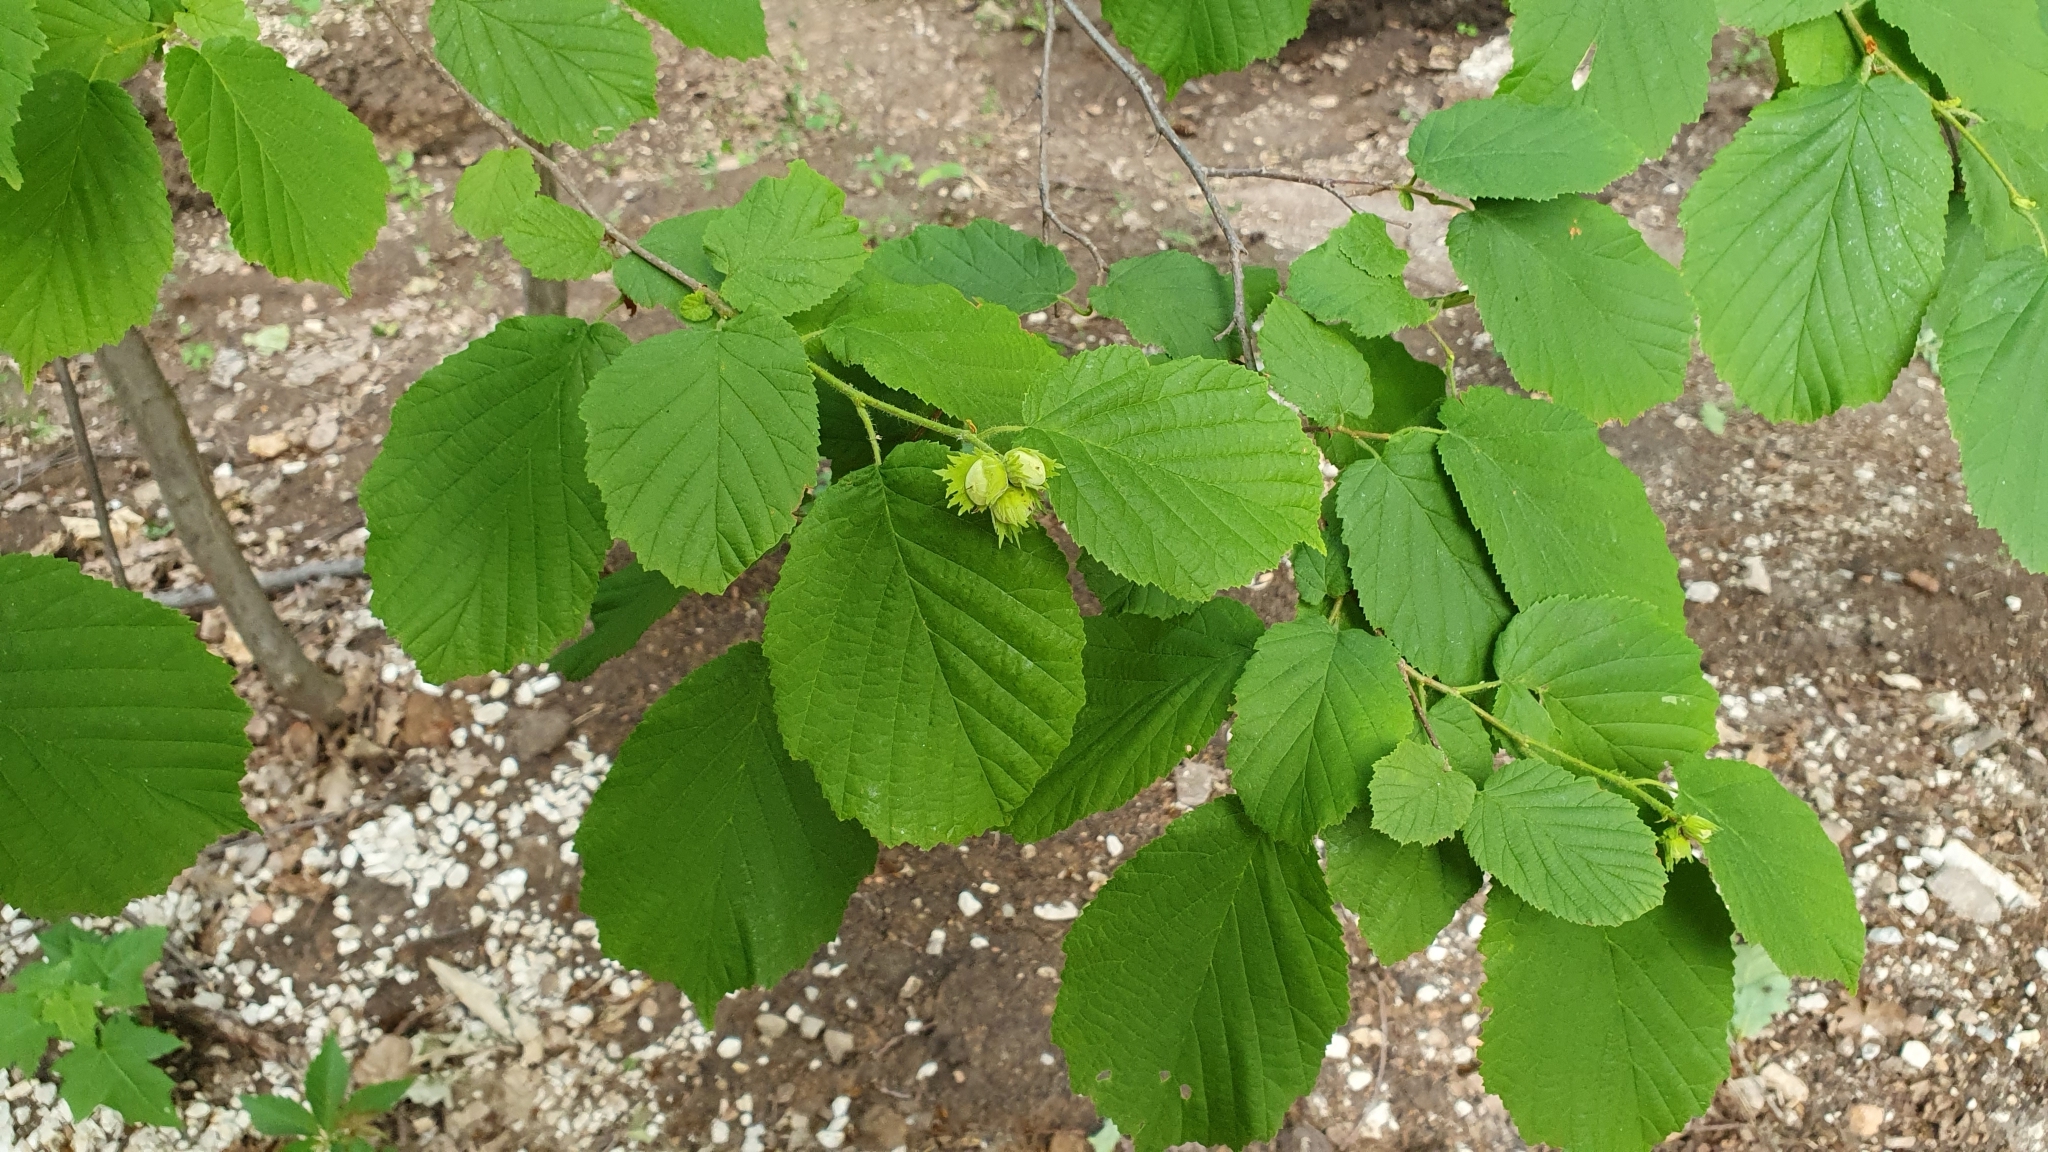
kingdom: Plantae
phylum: Tracheophyta
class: Magnoliopsida
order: Fagales
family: Betulaceae
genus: Corylus
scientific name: Corylus avellana
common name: European hazel
